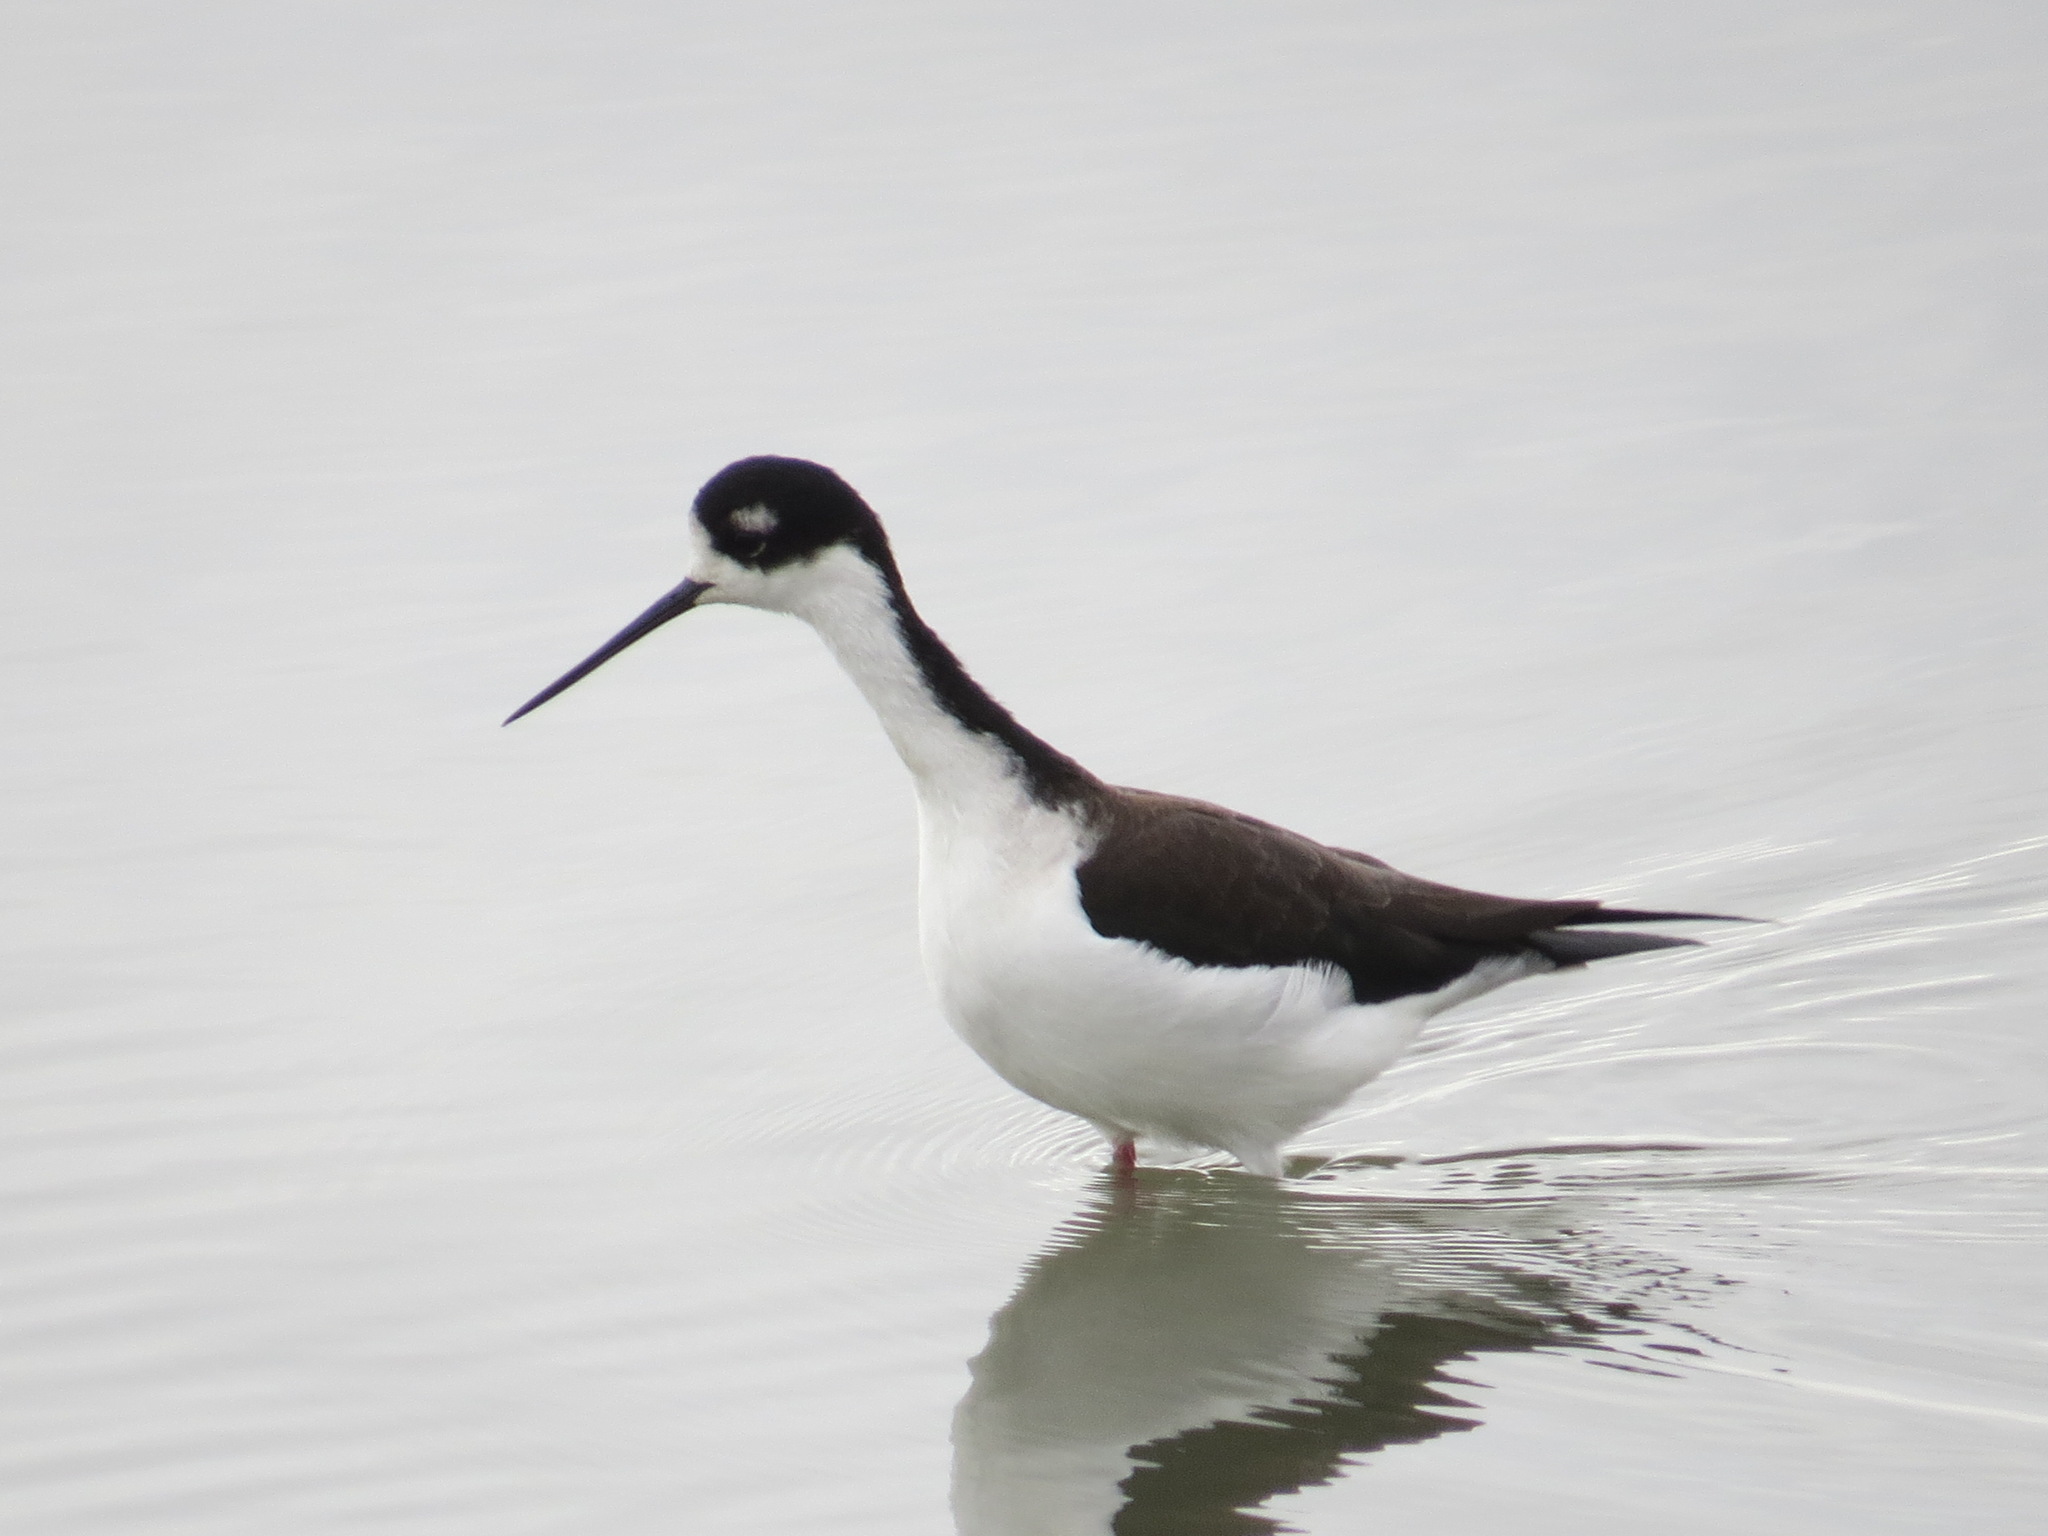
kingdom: Animalia
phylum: Chordata
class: Aves
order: Charadriiformes
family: Recurvirostridae
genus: Himantopus
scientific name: Himantopus mexicanus
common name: Black-necked stilt
